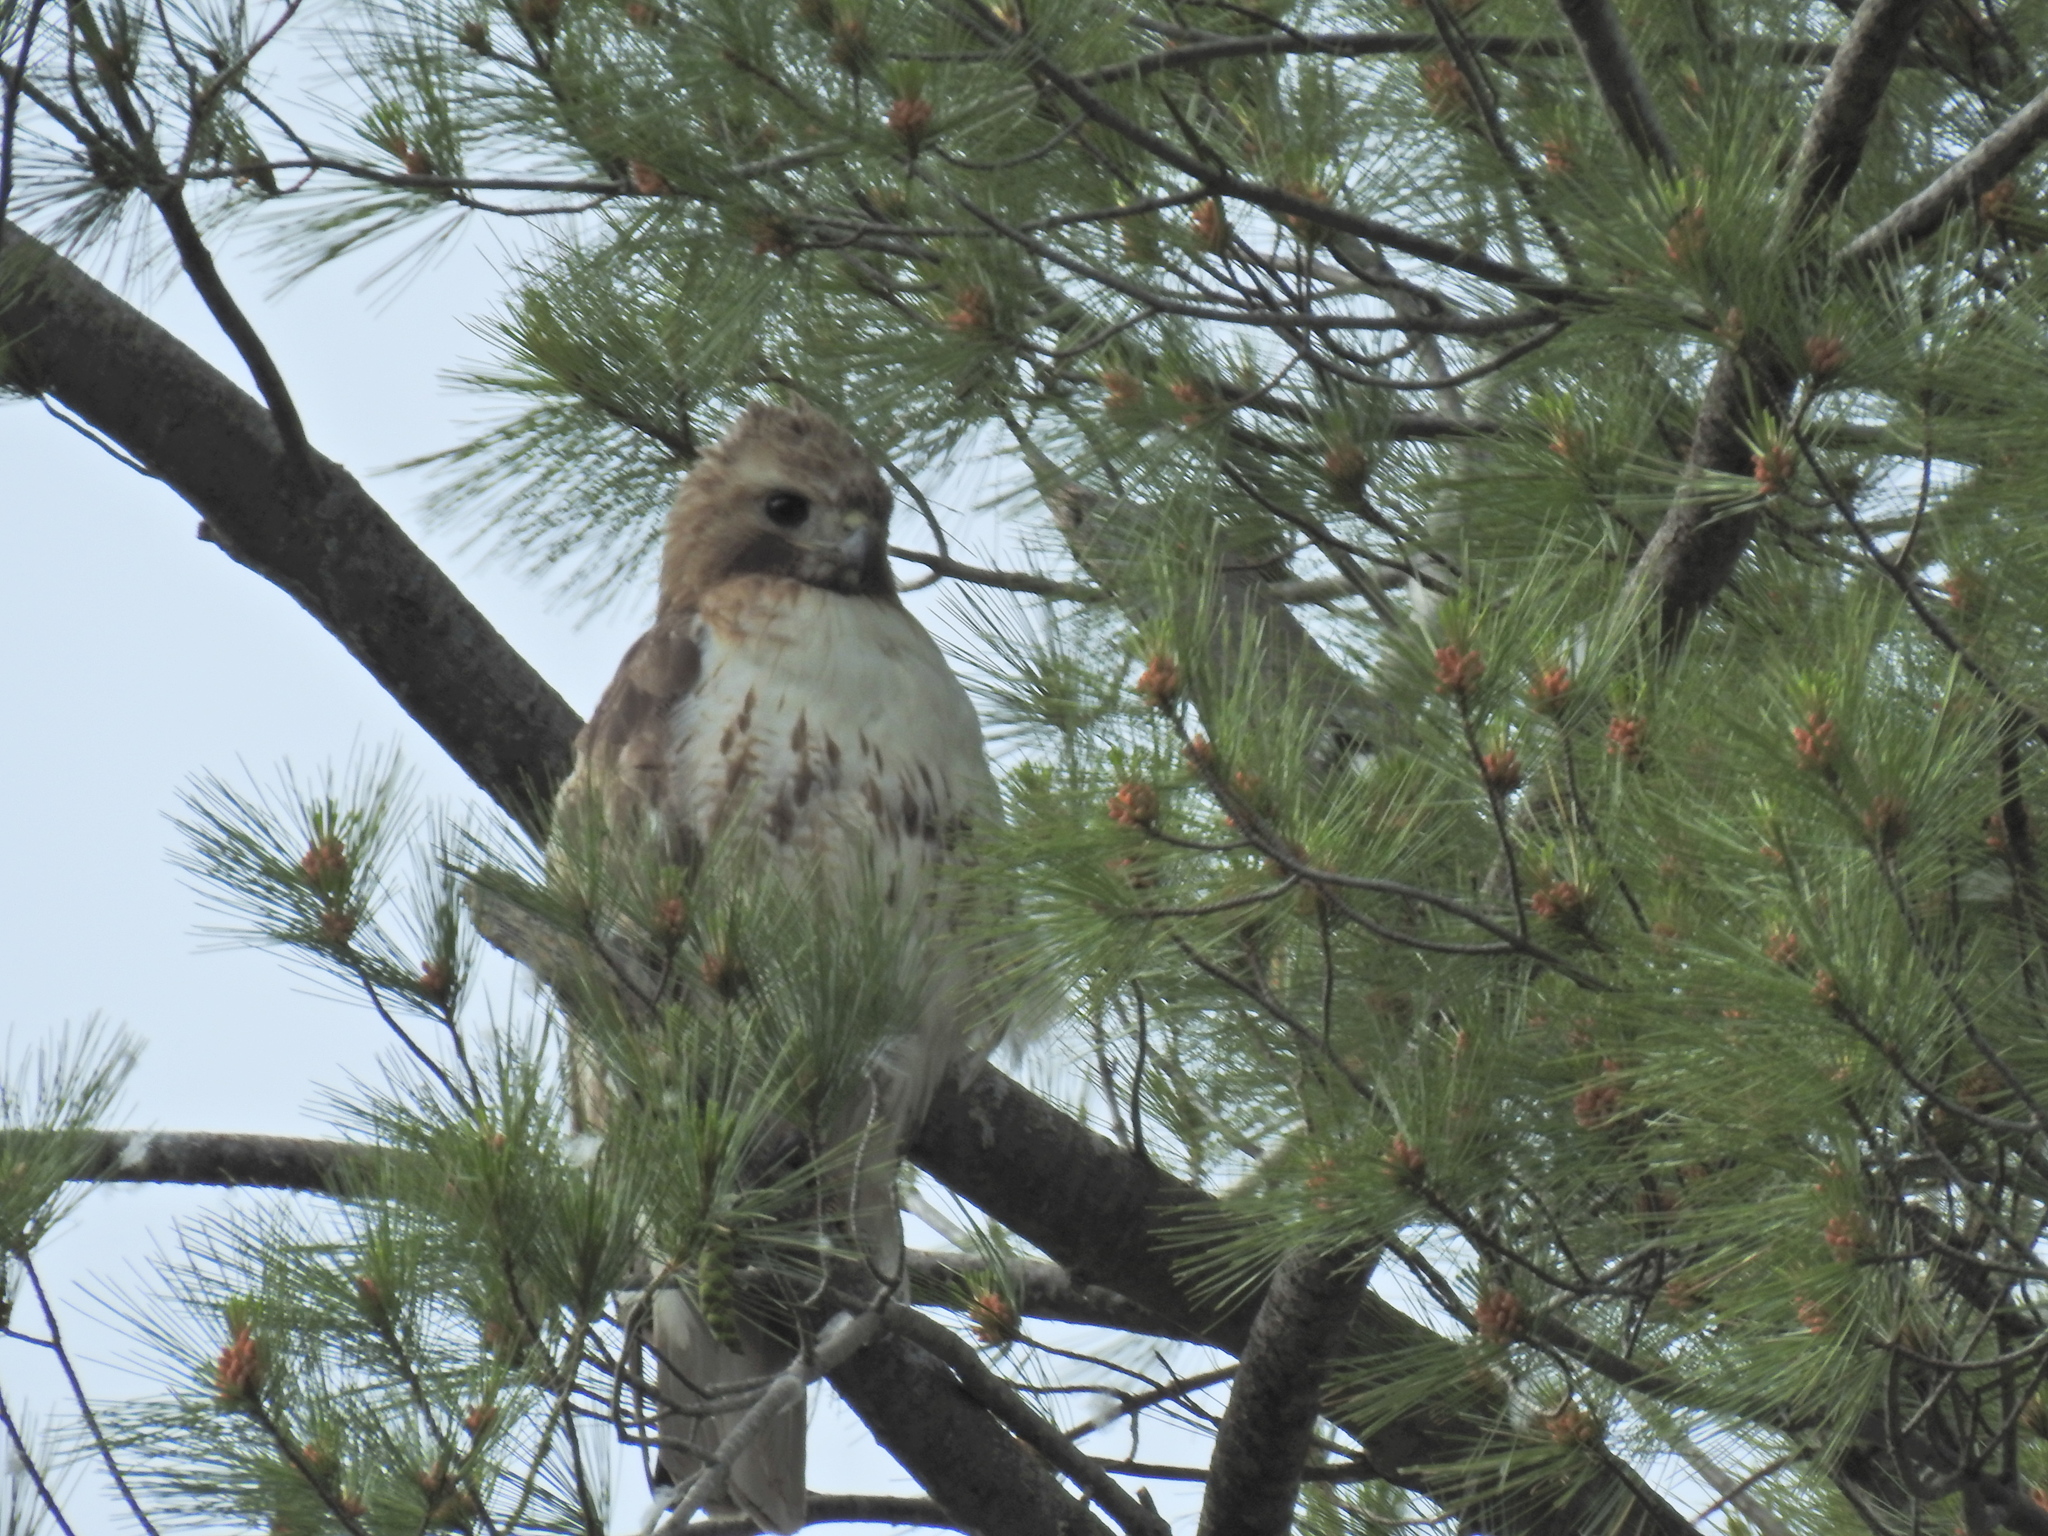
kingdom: Animalia
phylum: Chordata
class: Aves
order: Accipitriformes
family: Accipitridae
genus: Buteo
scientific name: Buteo jamaicensis
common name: Red-tailed hawk
